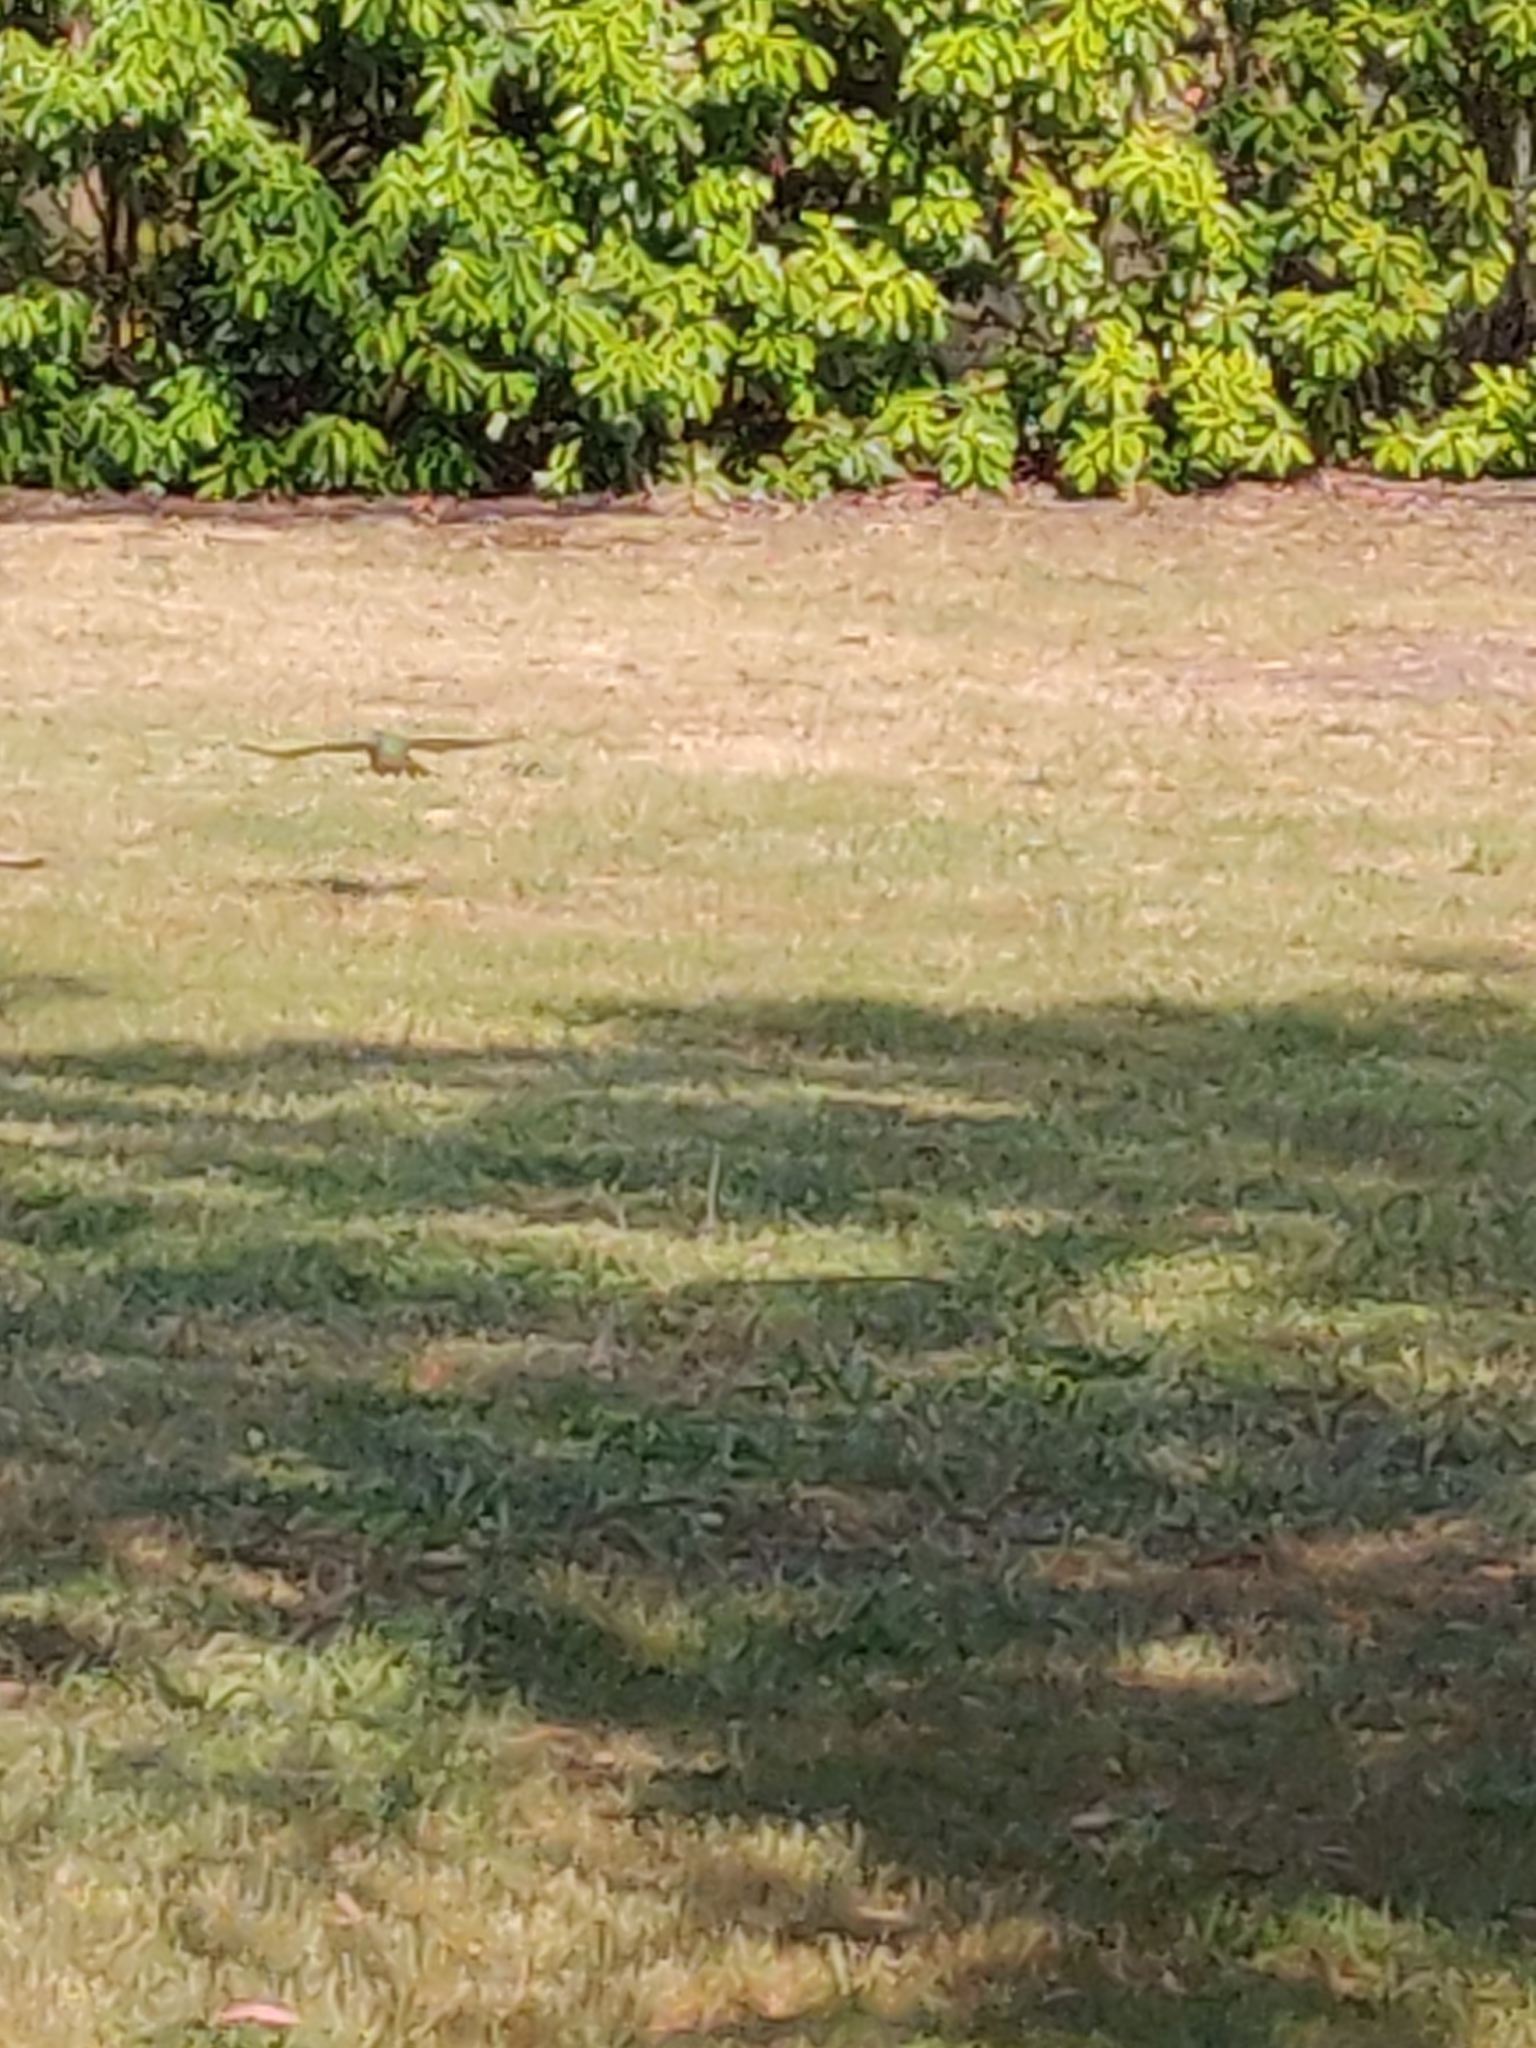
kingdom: Animalia
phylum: Chordata
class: Aves
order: Passeriformes
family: Ptilonorhynchidae
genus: Ptilonorhynchus
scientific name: Ptilonorhynchus violaceus
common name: Satin bowerbird
